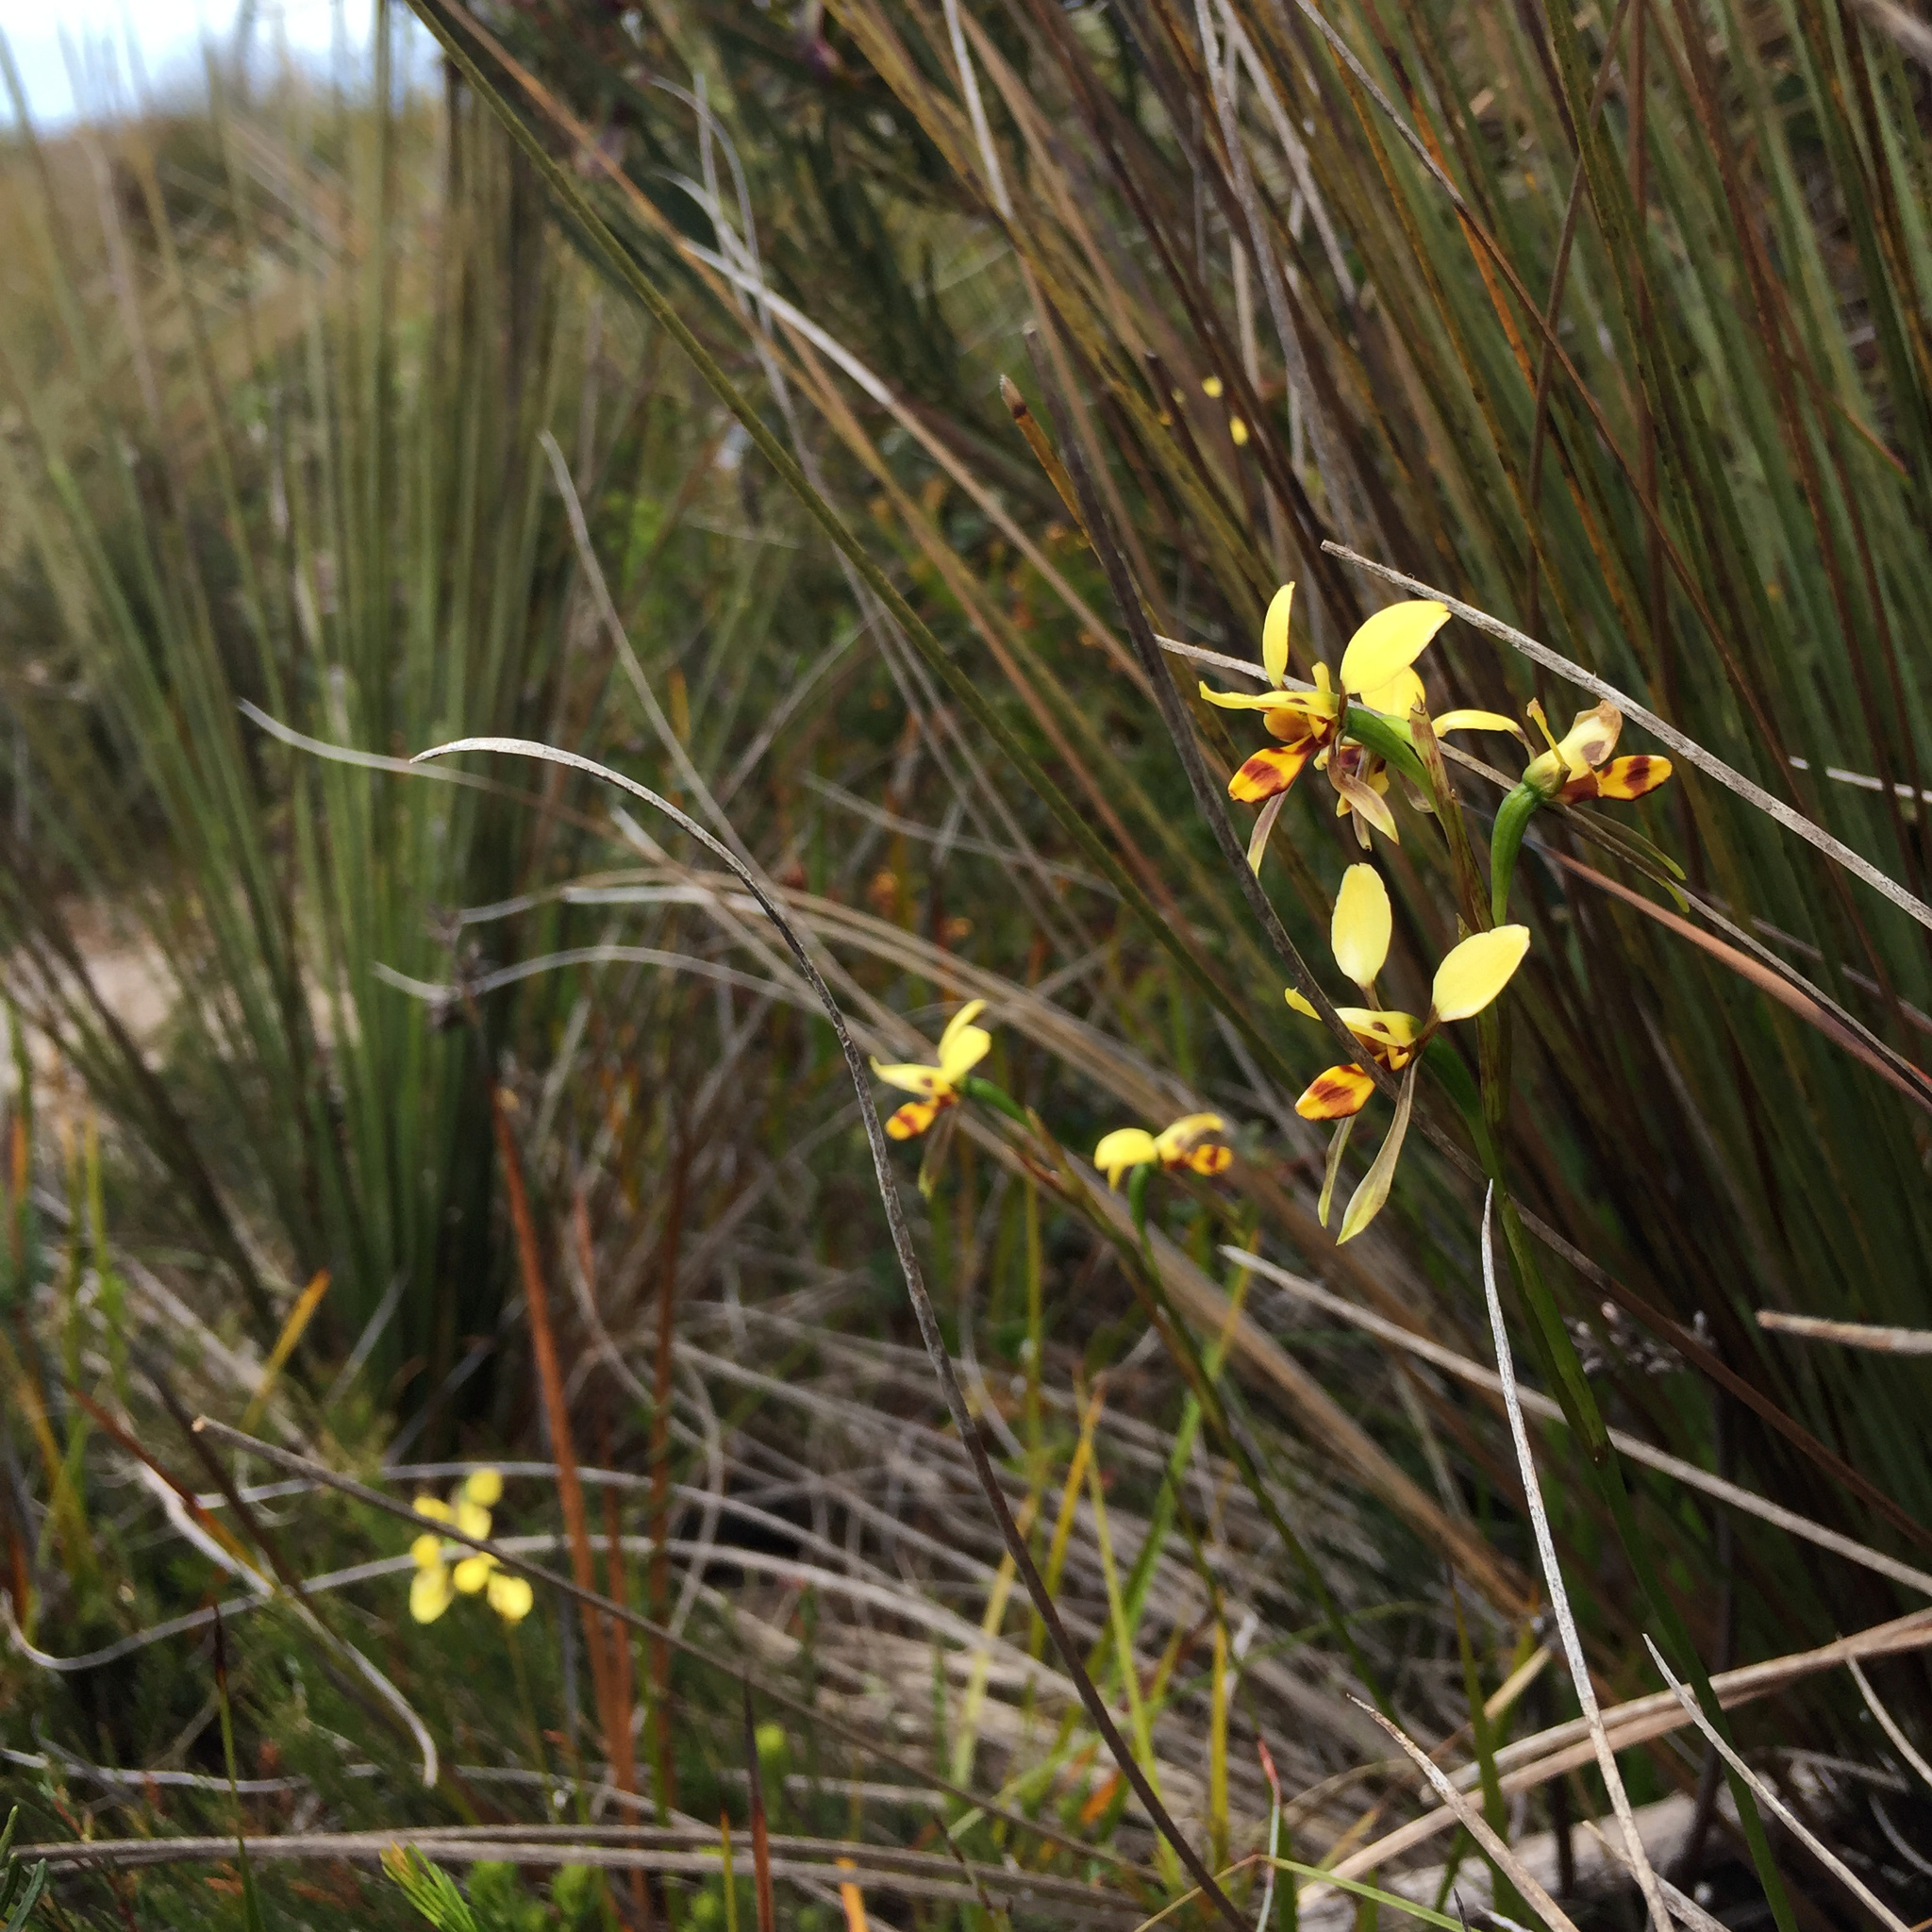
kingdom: Plantae
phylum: Tracheophyta
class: Liliopsida
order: Asparagales
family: Orchidaceae
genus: Diuris
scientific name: Diuris sulphurea
